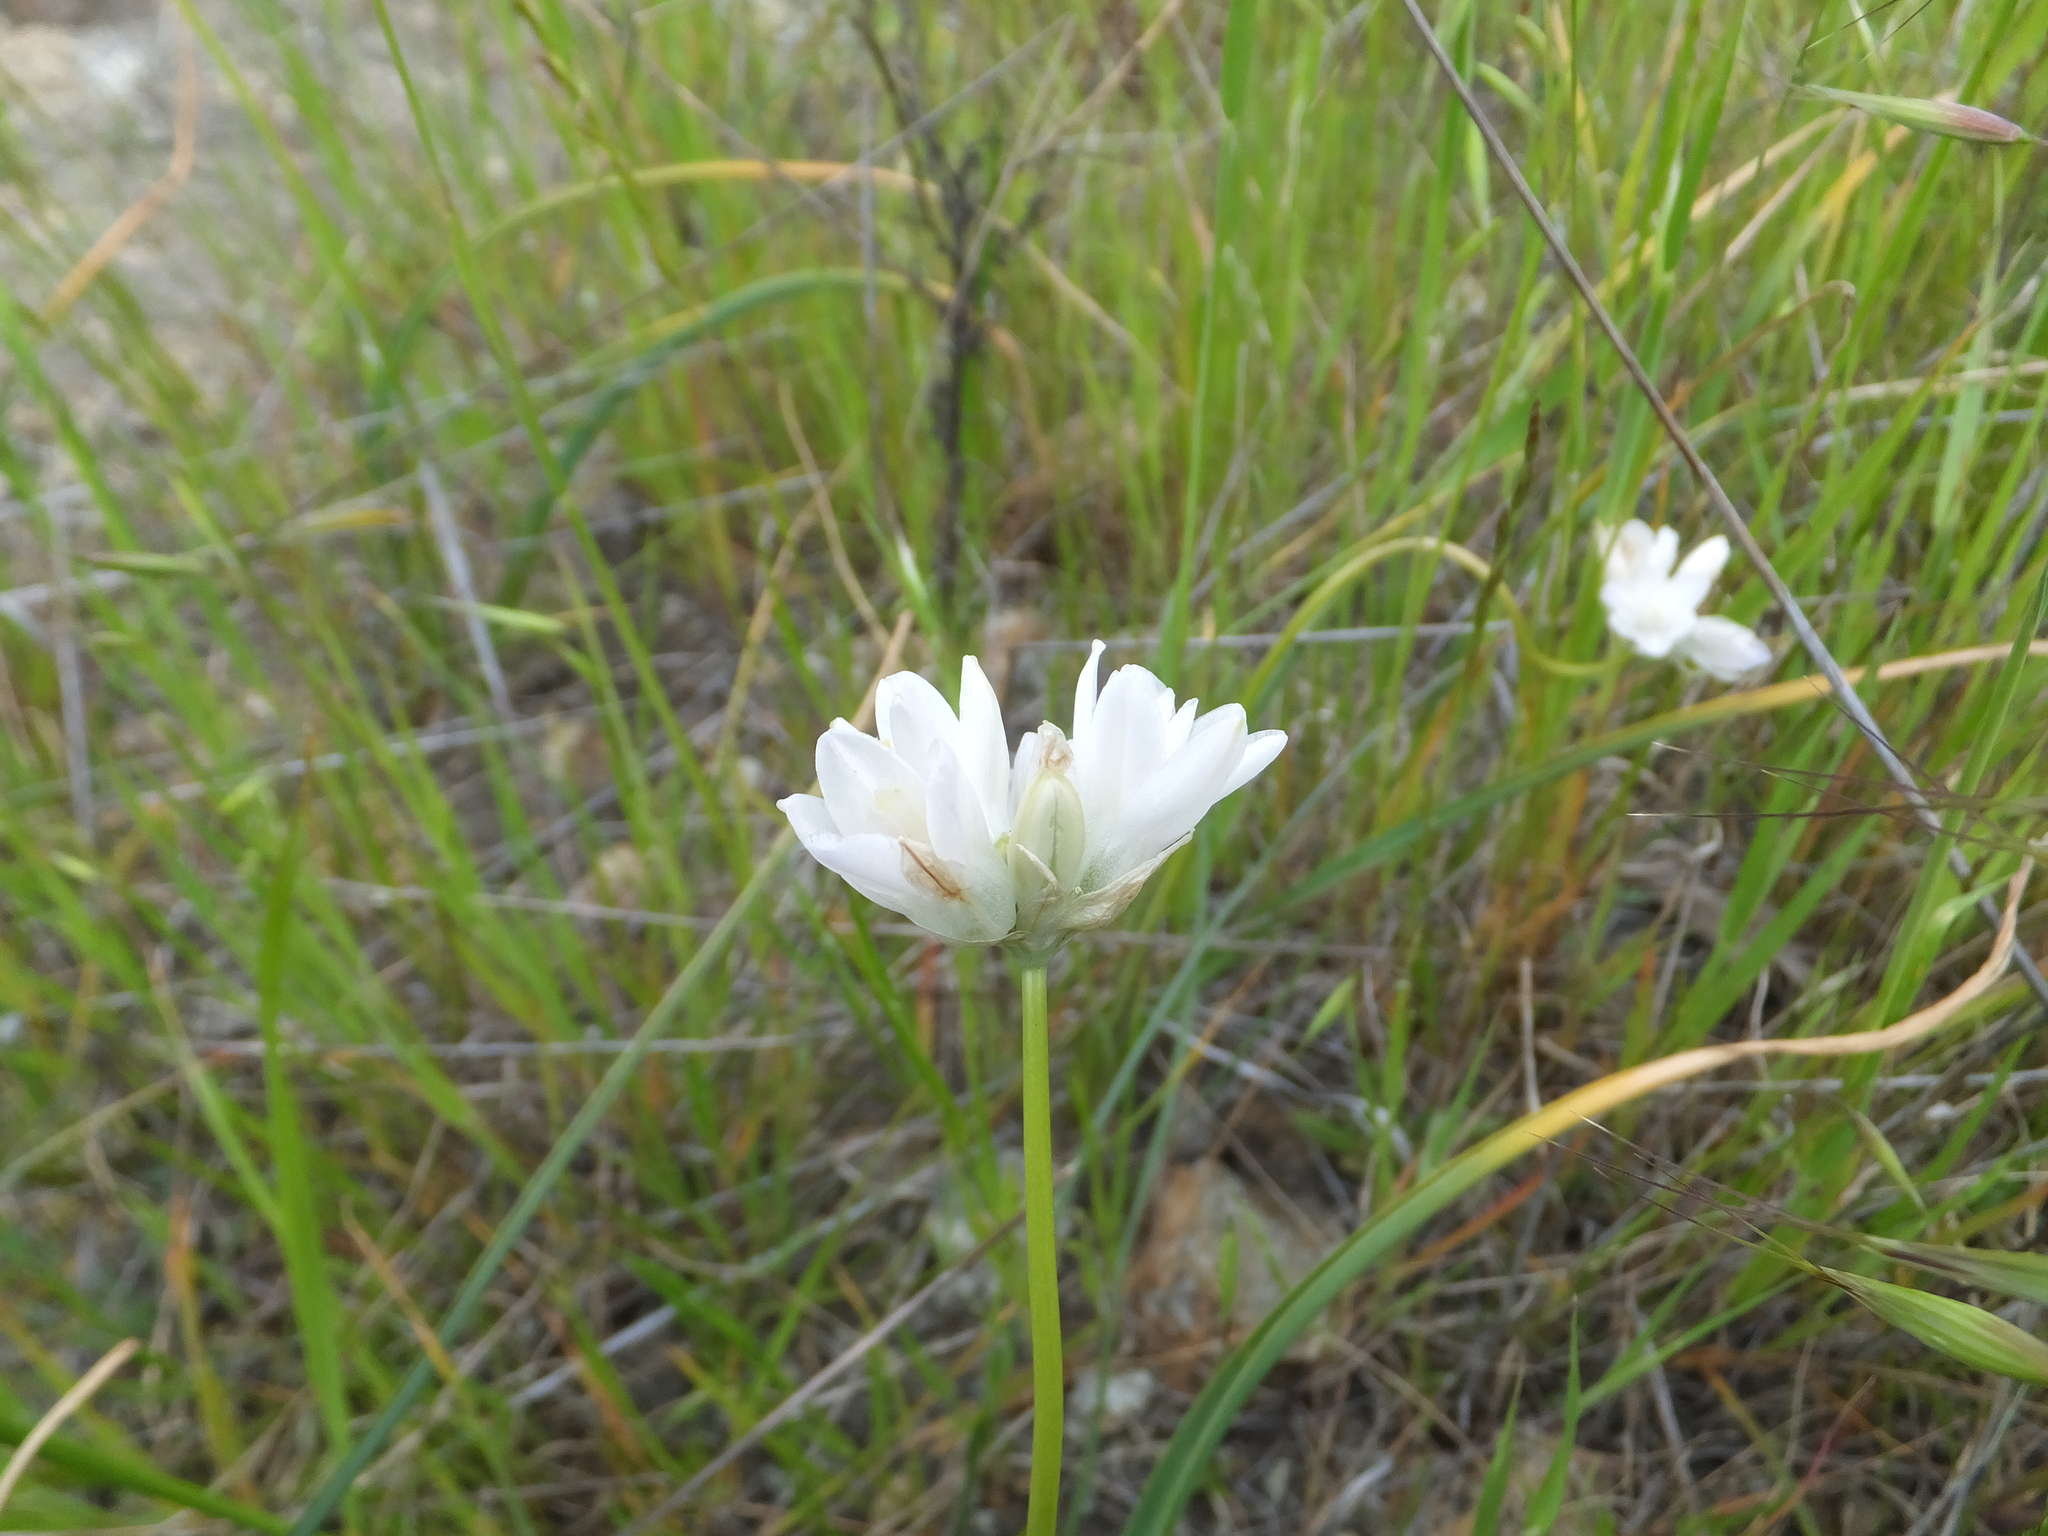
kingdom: Plantae
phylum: Tracheophyta
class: Liliopsida
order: Asparagales
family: Asparagaceae
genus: Dipterostemon
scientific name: Dipterostemon capitatus
